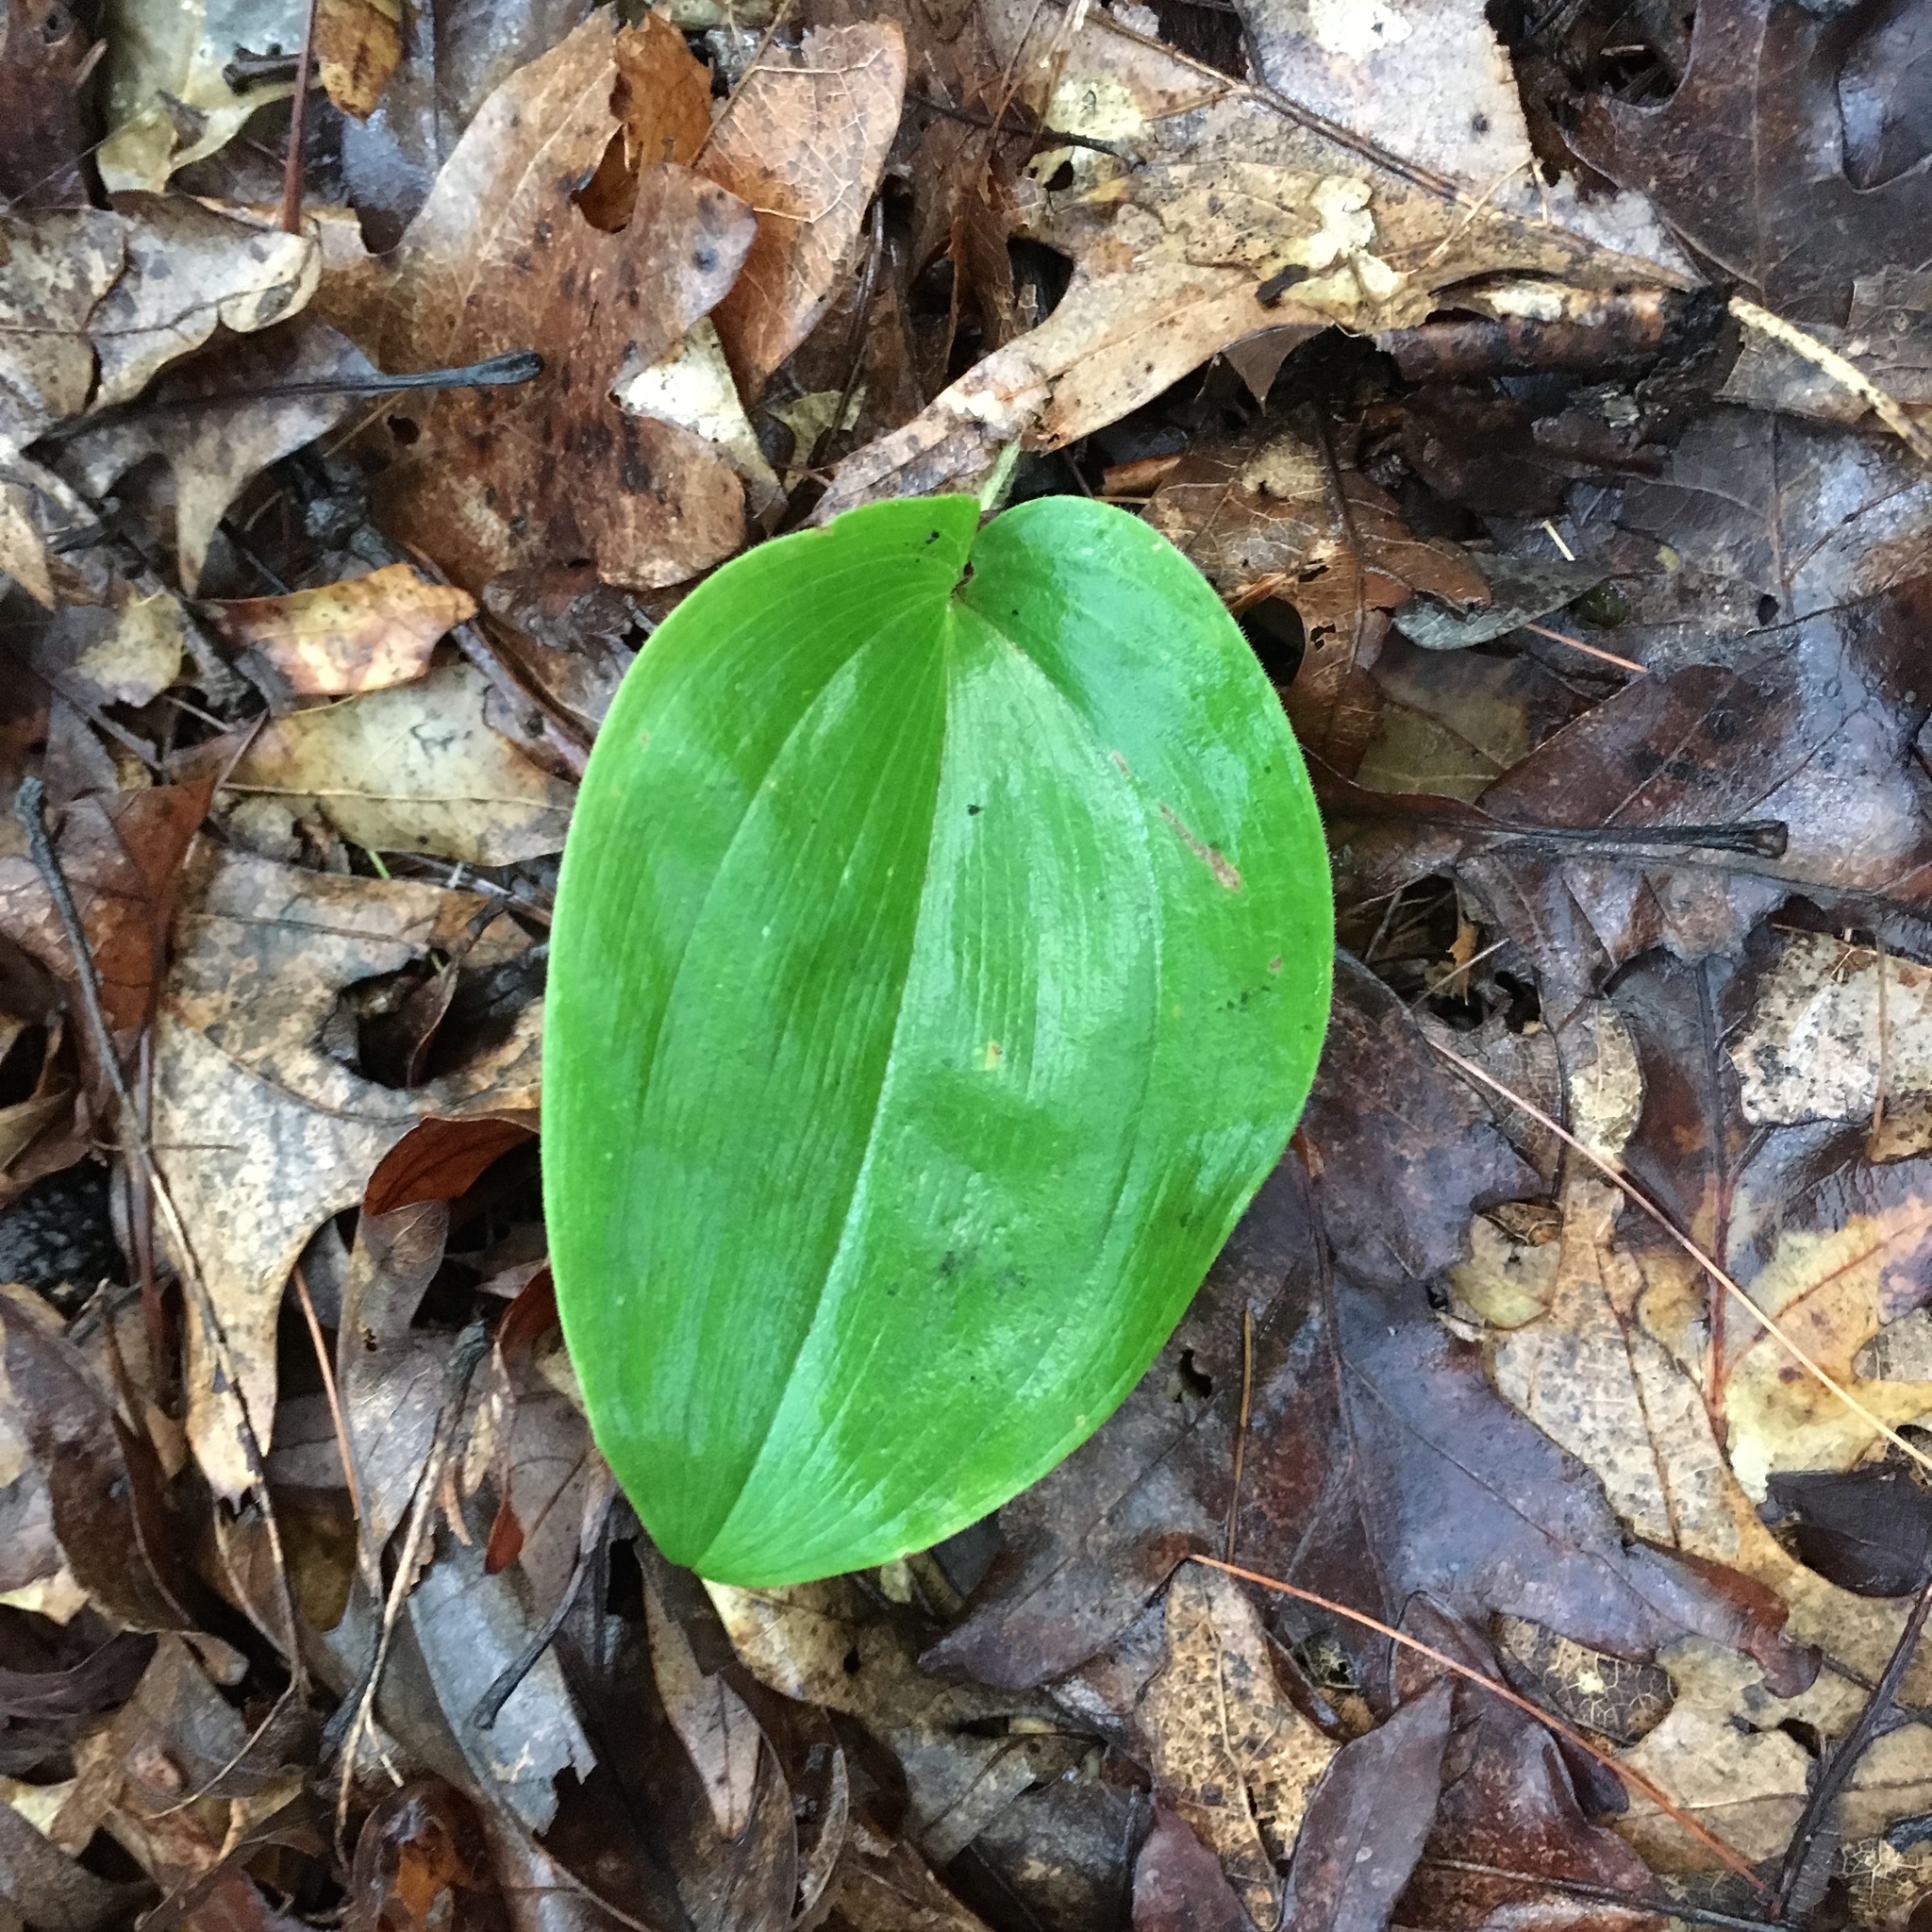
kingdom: Plantae
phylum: Tracheophyta
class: Liliopsida
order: Asparagales
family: Asparagaceae
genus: Maianthemum
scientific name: Maianthemum canadense
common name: False lily-of-the-valley
